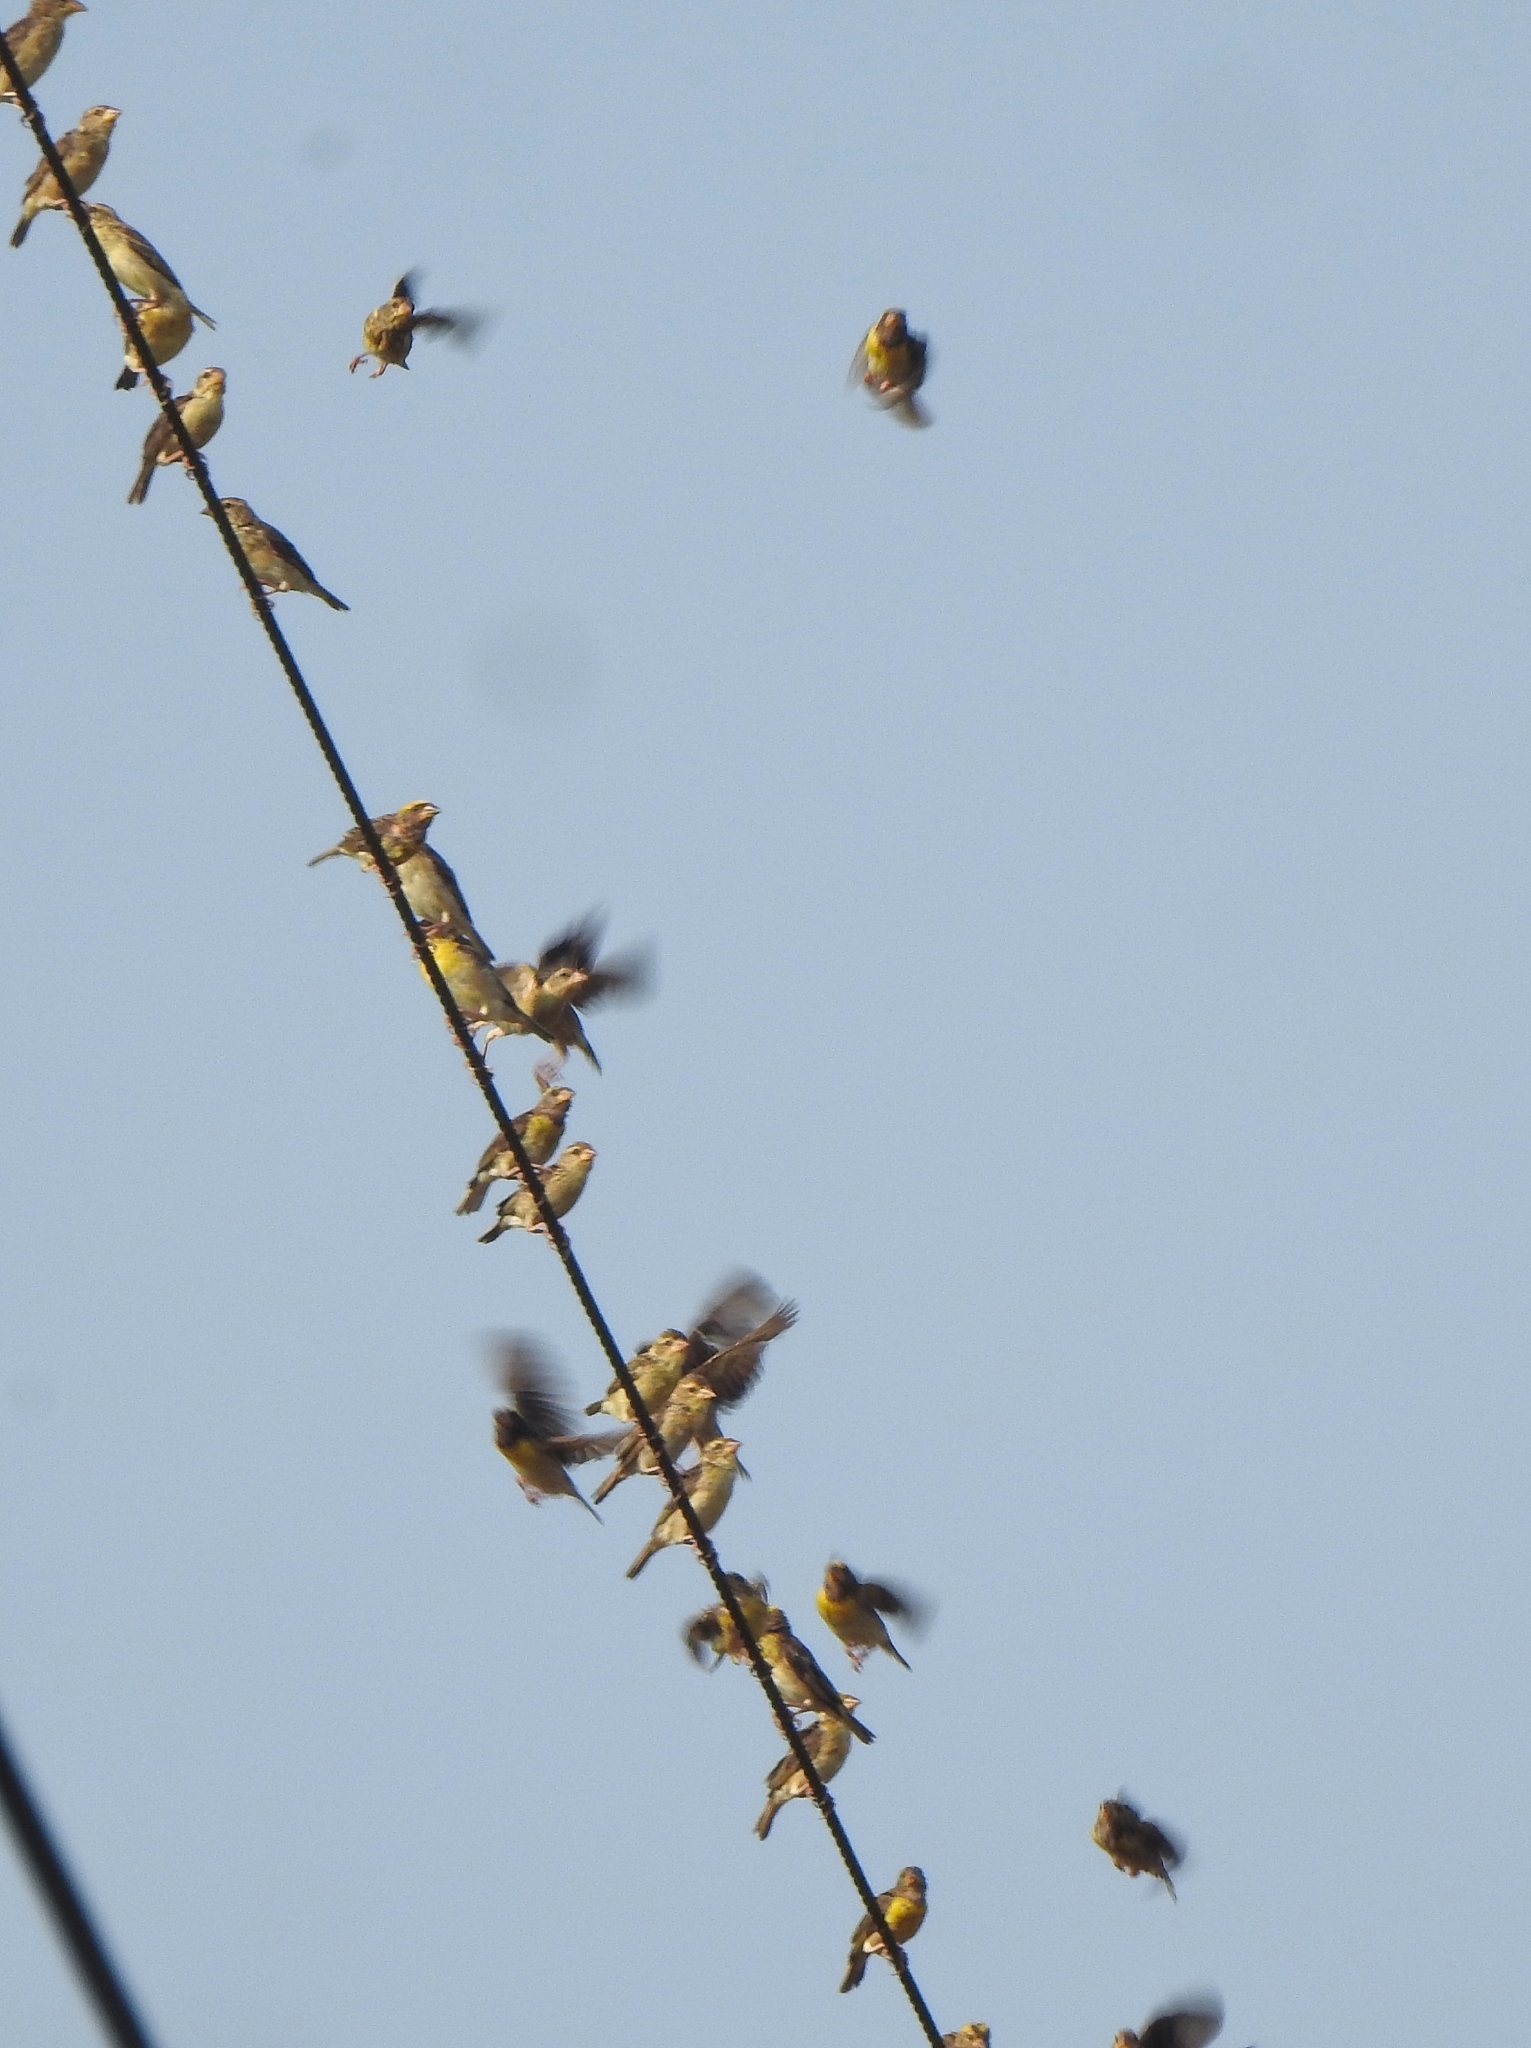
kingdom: Animalia
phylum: Chordata
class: Aves
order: Passeriformes
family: Ploceidae
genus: Ploceus
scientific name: Ploceus philippinus
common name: Baya weaver
